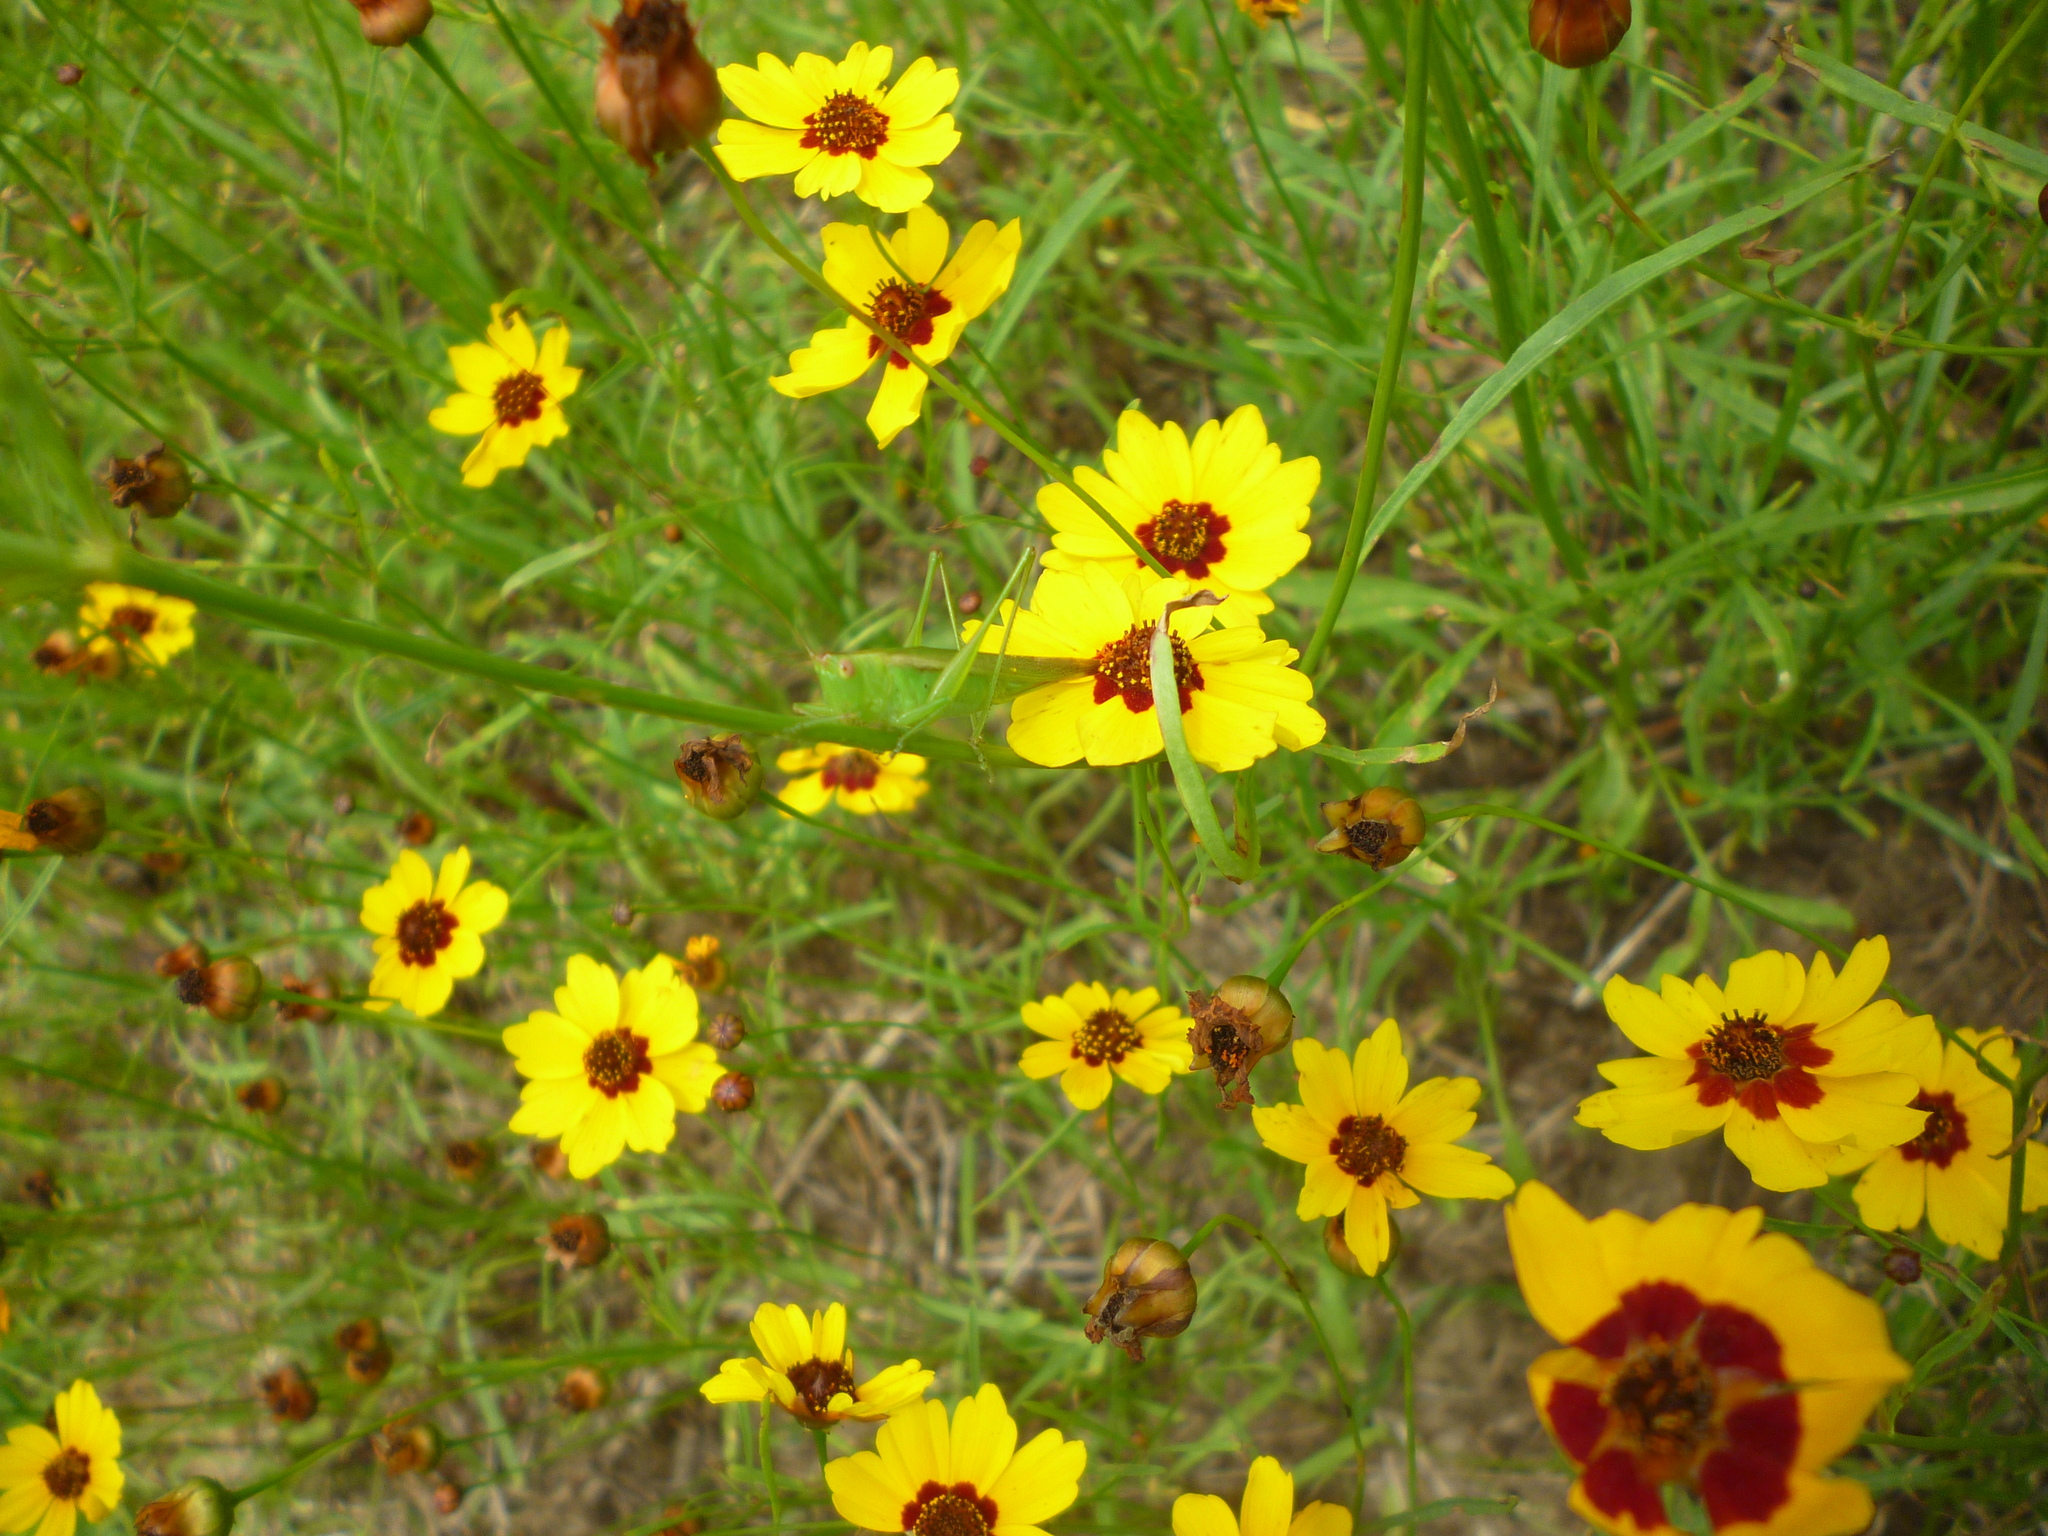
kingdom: Plantae
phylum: Tracheophyta
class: Magnoliopsida
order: Asterales
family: Asteraceae
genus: Coreopsis
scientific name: Coreopsis tinctoria
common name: Garden tickseed
